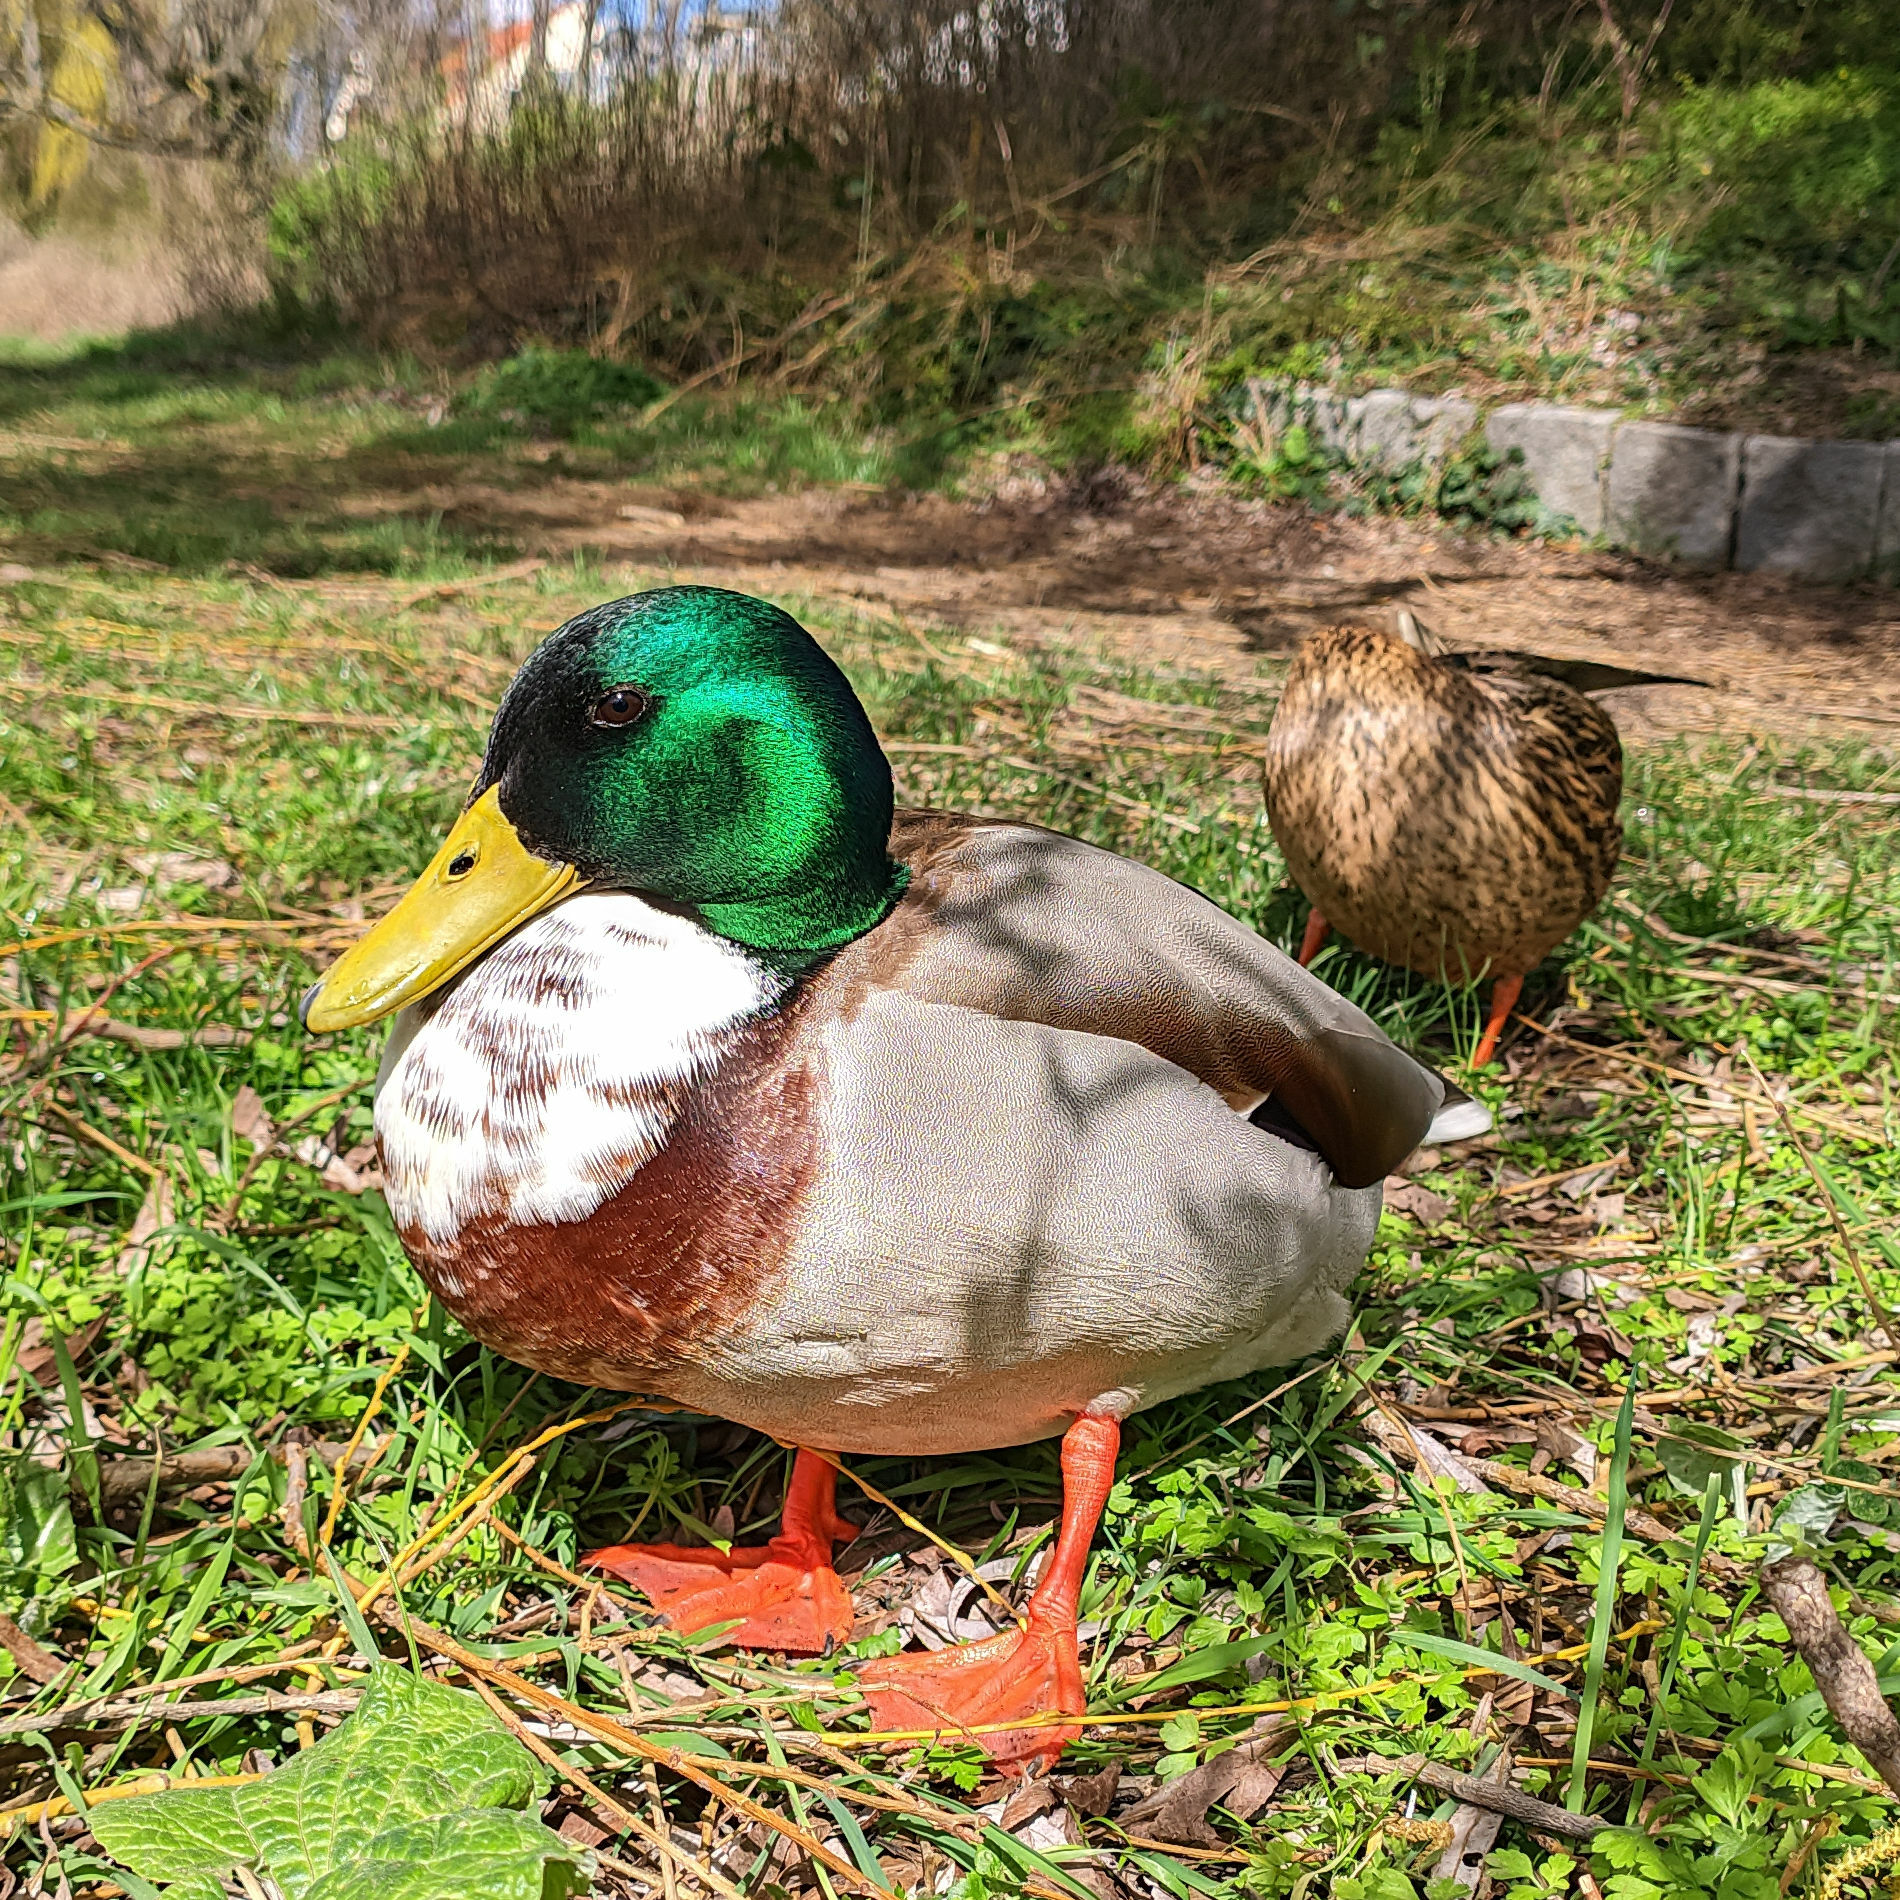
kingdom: Animalia
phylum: Chordata
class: Aves
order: Anseriformes
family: Anatidae
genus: Anas
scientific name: Anas platyrhynchos
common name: Mallard
